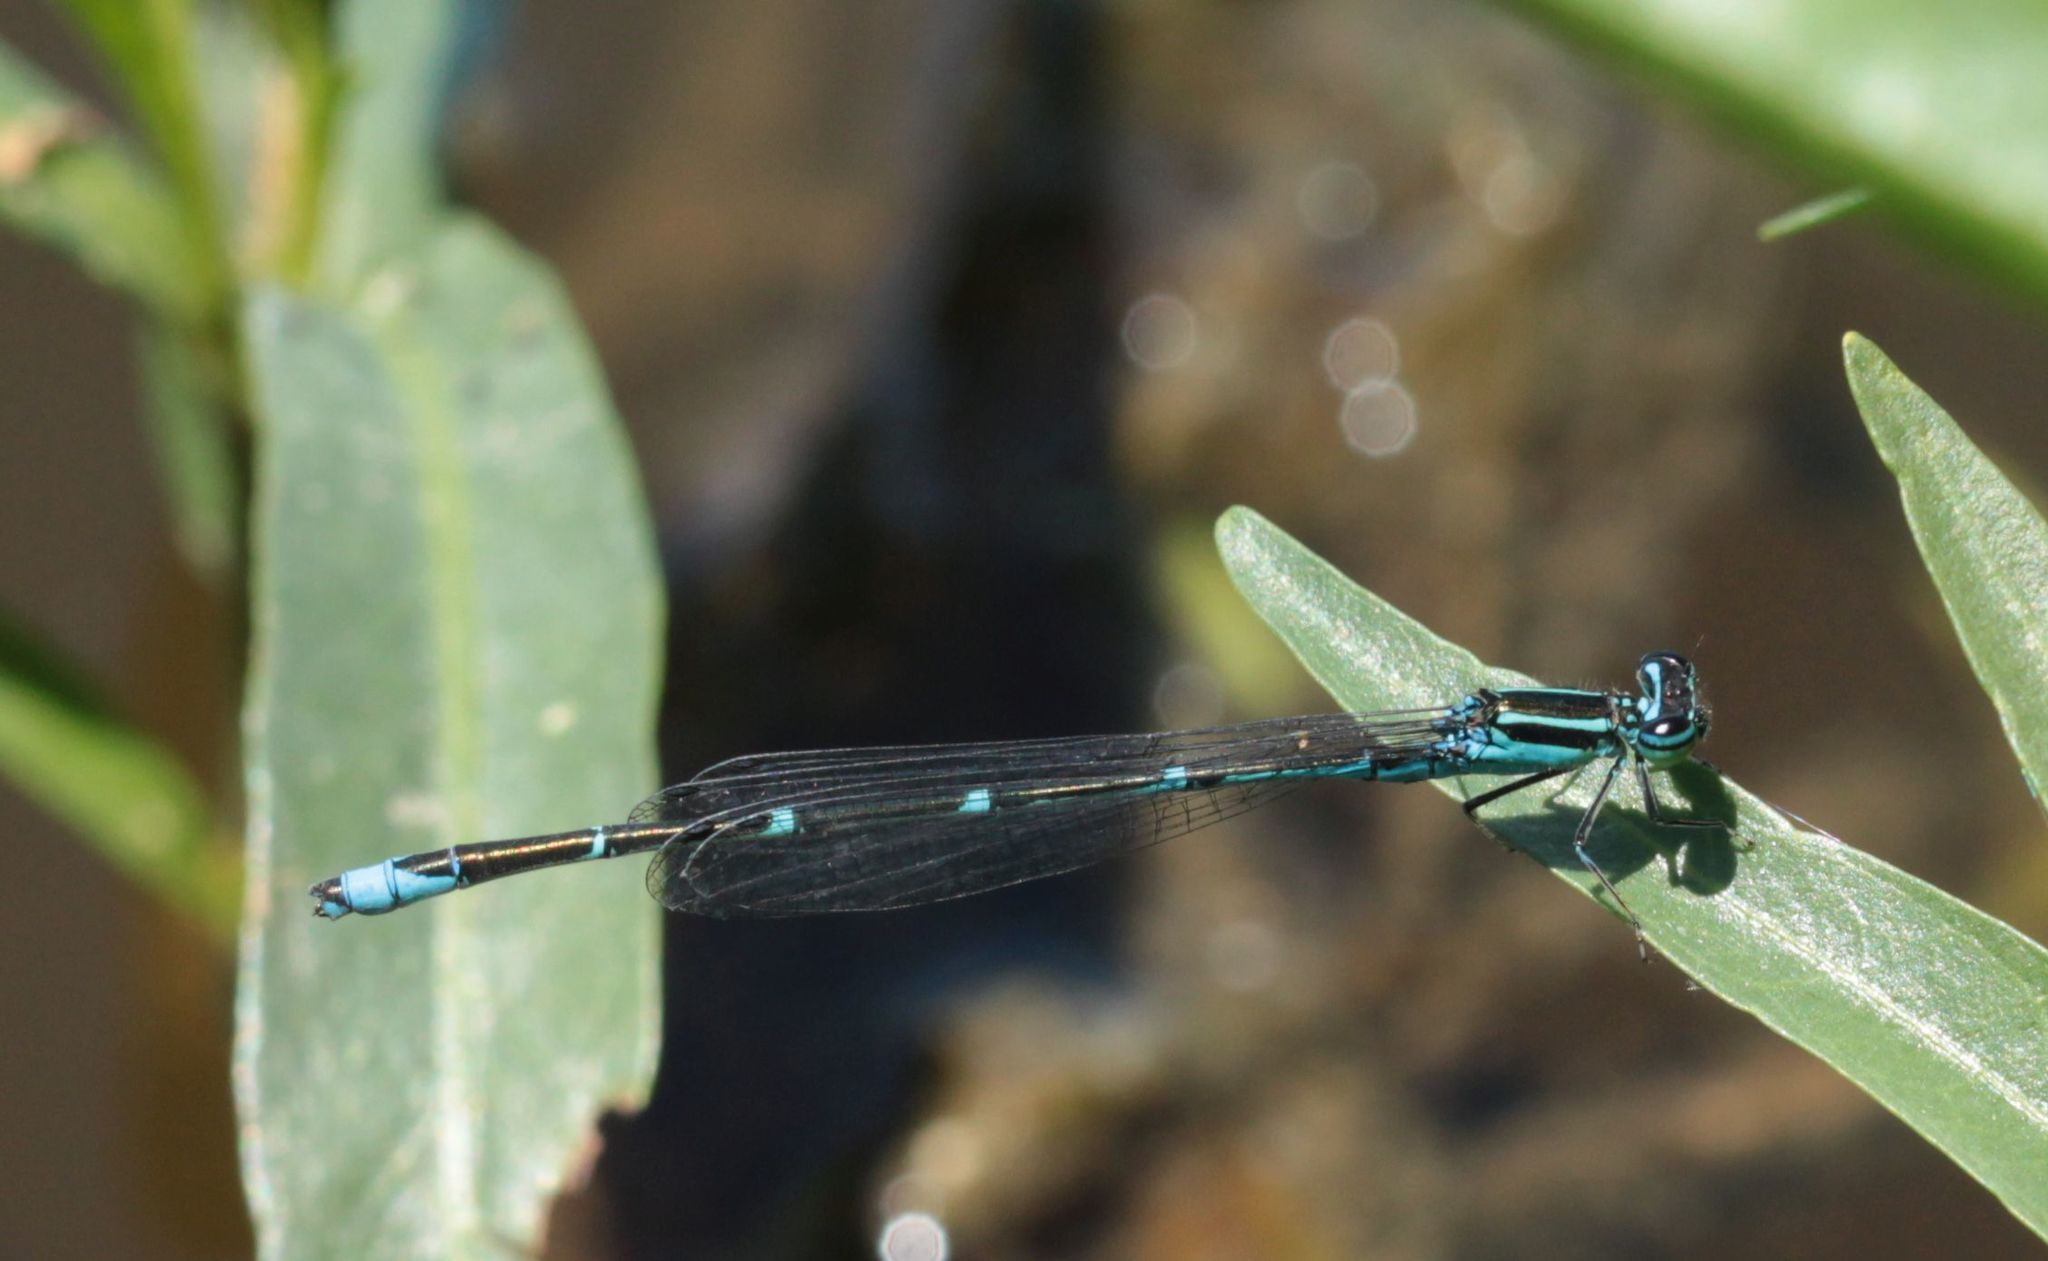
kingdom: Animalia
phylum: Arthropoda
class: Insecta
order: Odonata
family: Coenagrionidae
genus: Enallagma
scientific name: Enallagma exsulans
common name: Stream bluet
